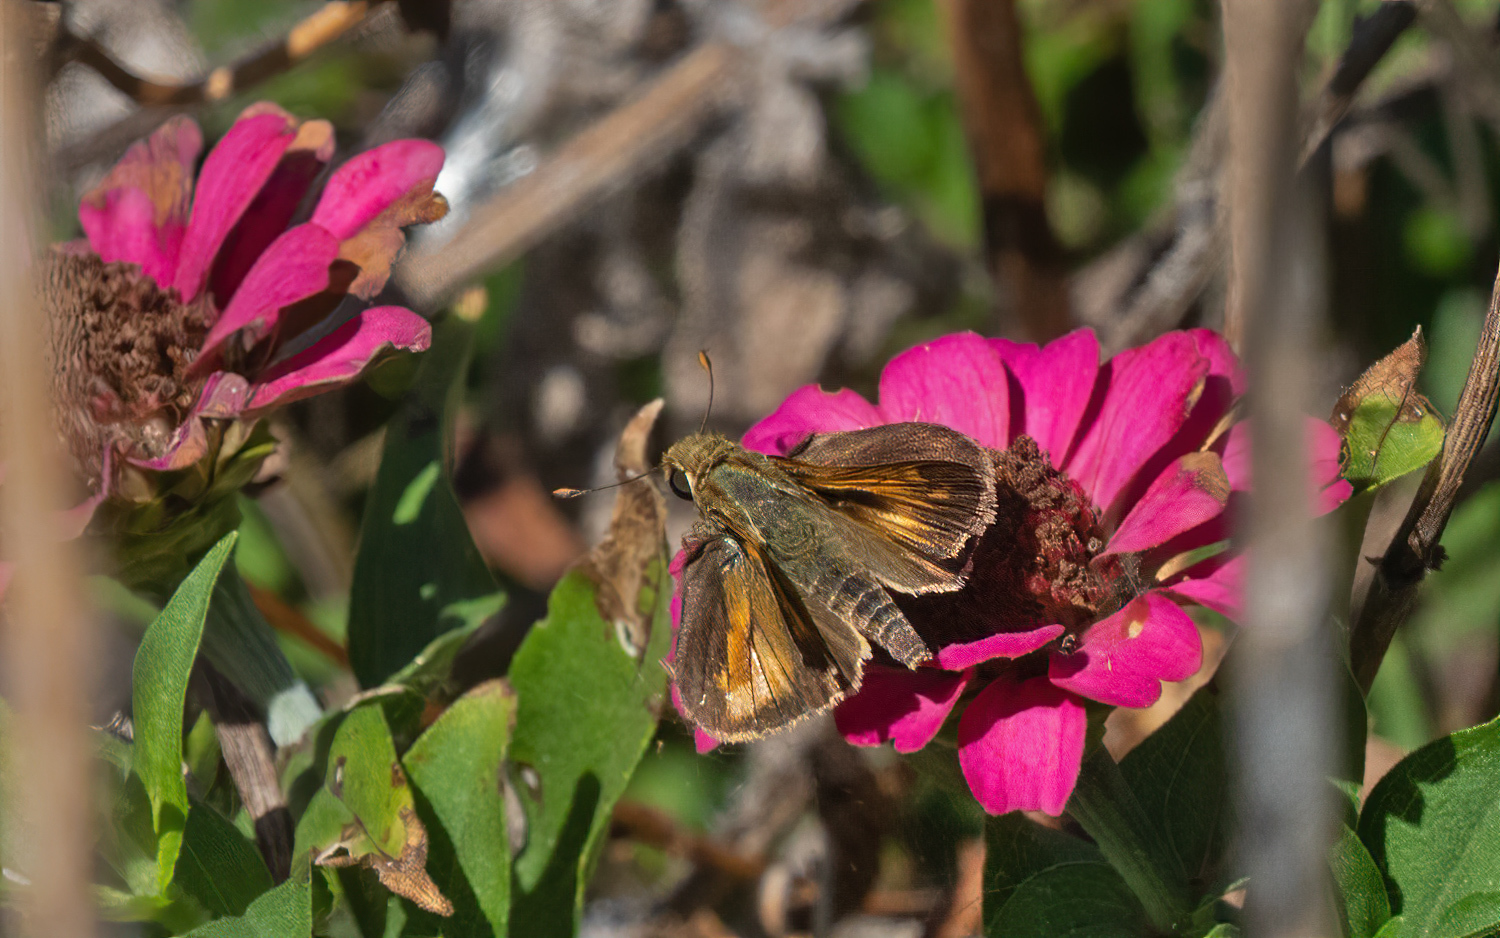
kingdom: Animalia
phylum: Arthropoda
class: Insecta
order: Lepidoptera
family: Hesperiidae
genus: Atalopedes
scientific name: Atalopedes
